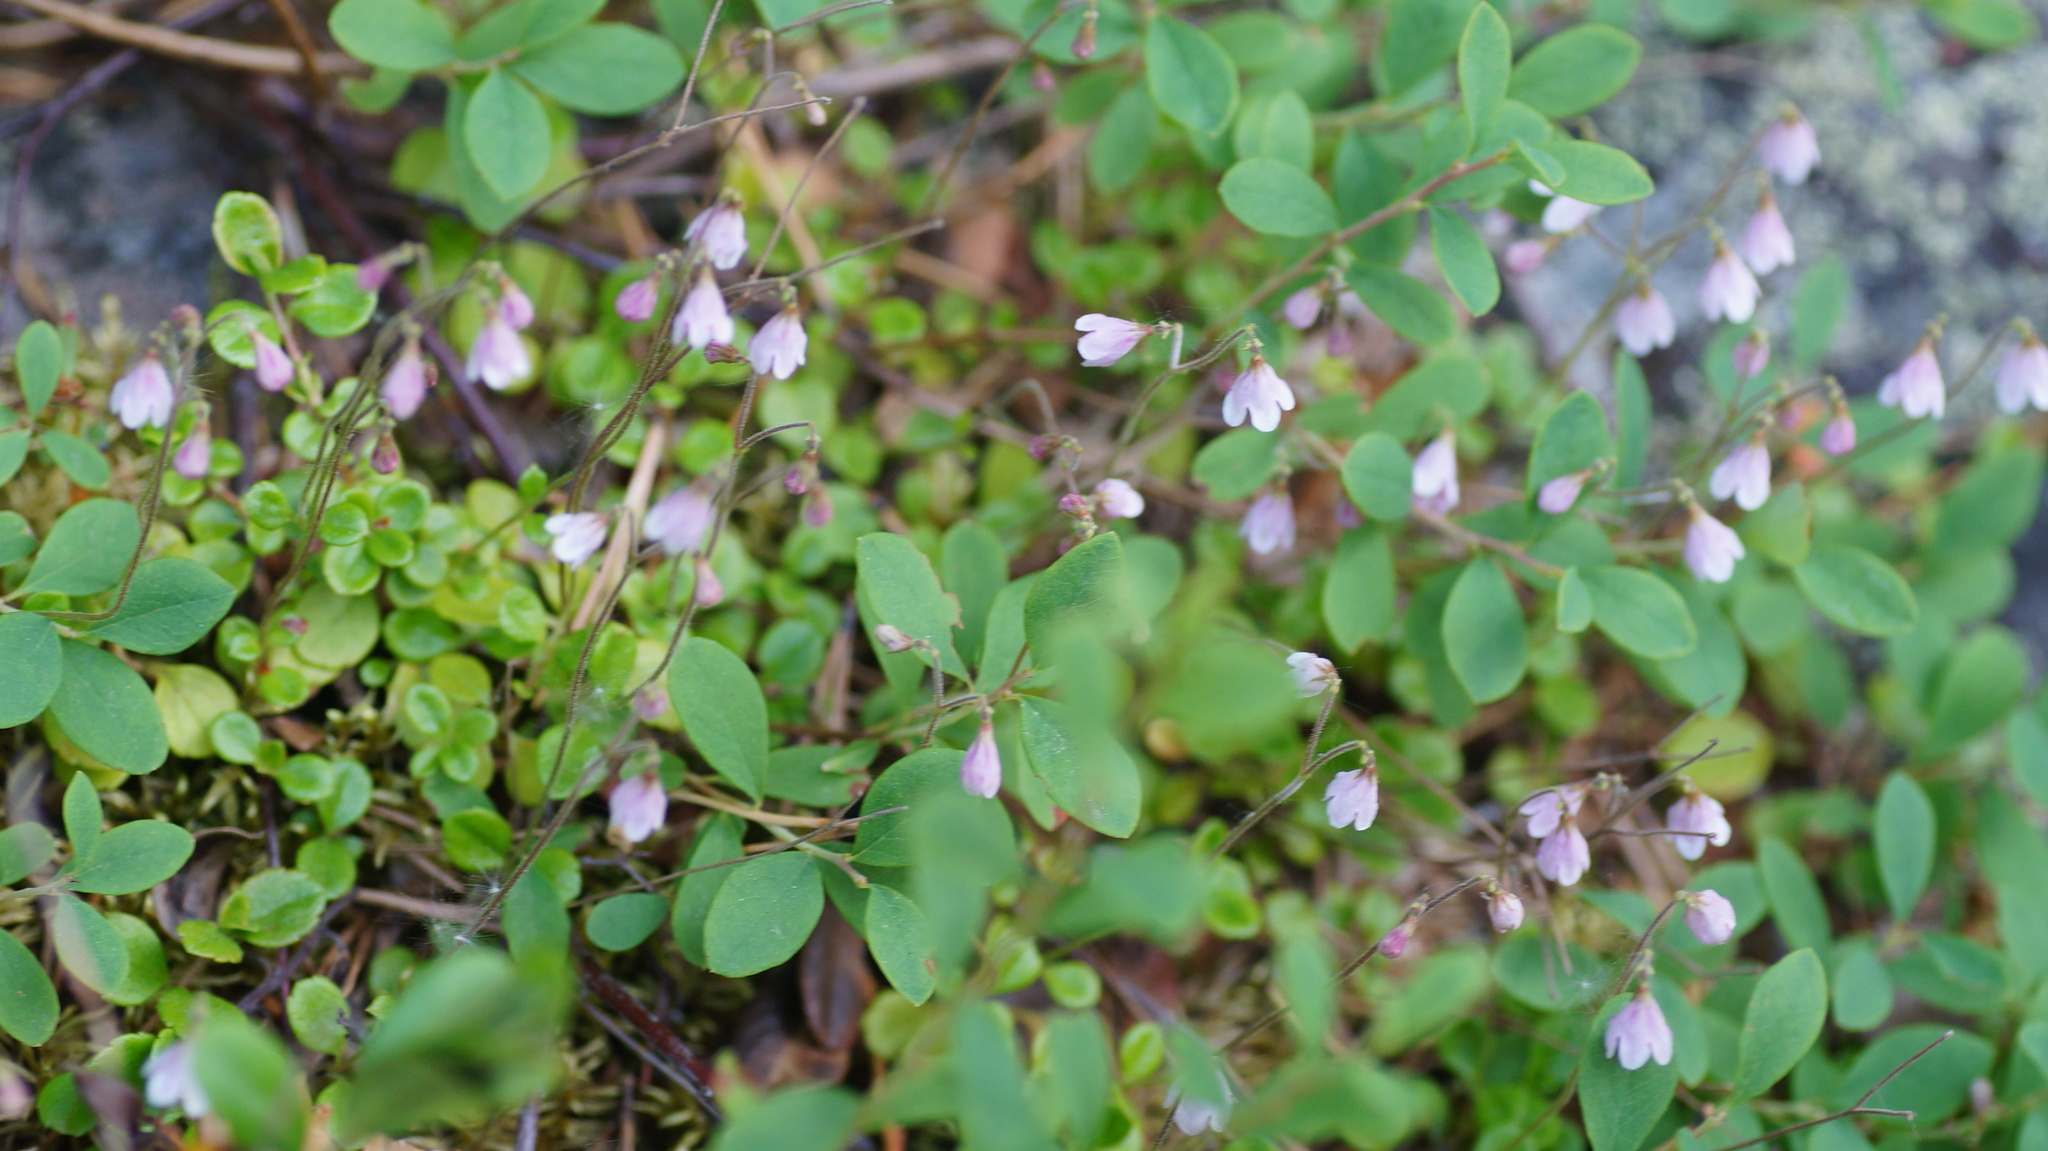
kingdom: Plantae
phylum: Tracheophyta
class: Magnoliopsida
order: Dipsacales
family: Caprifoliaceae
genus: Linnaea
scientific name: Linnaea borealis
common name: Twinflower
